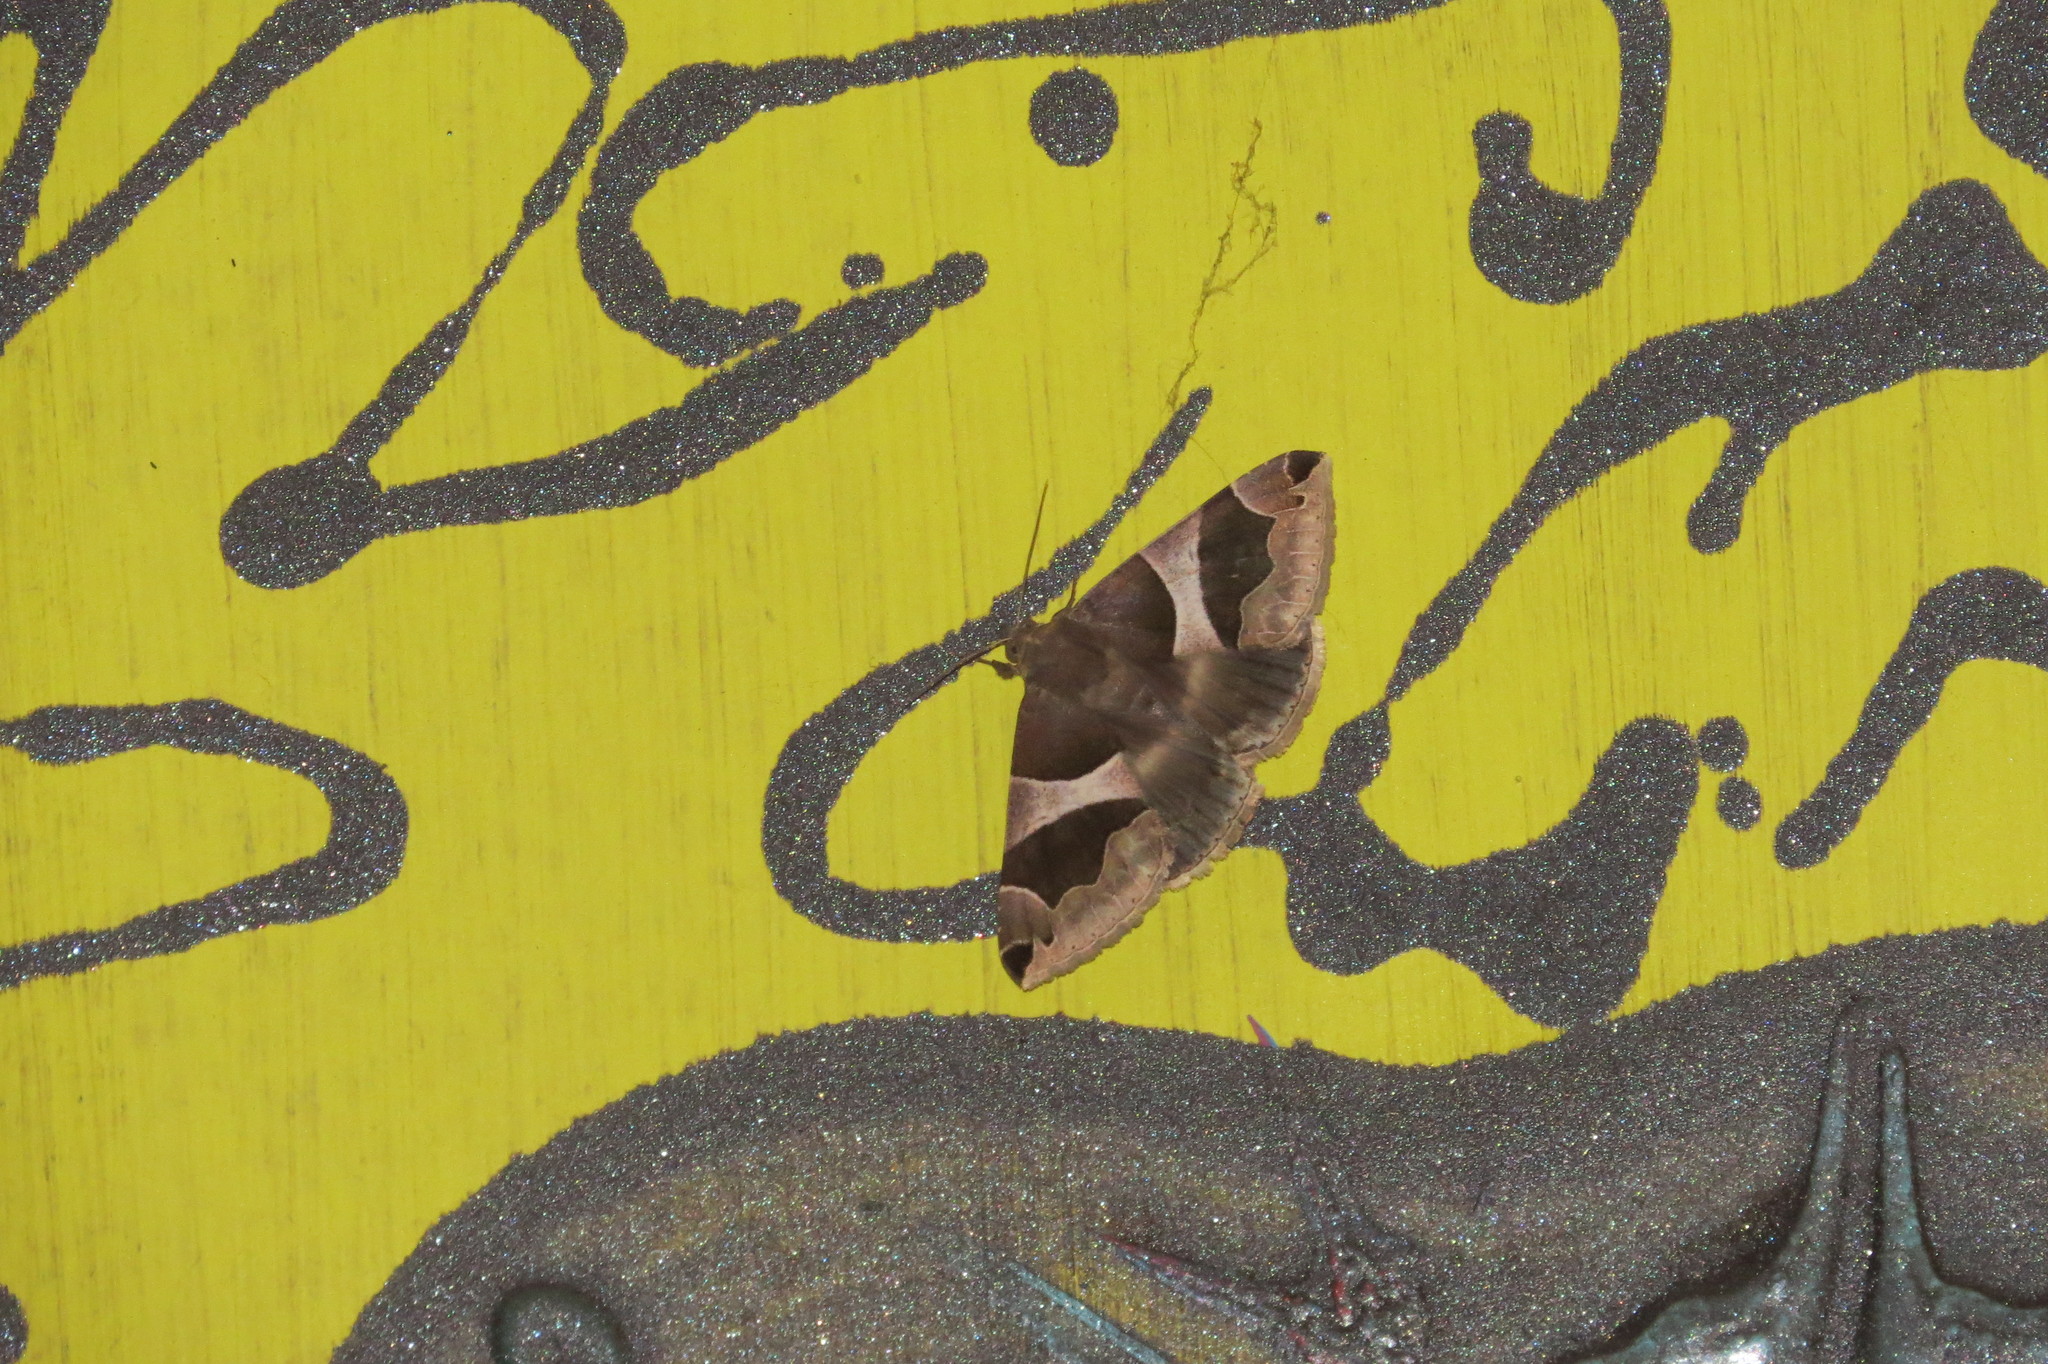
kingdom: Animalia
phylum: Arthropoda
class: Insecta
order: Lepidoptera
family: Erebidae
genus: Dysgonia
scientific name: Dysgonia algira
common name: Passenger
